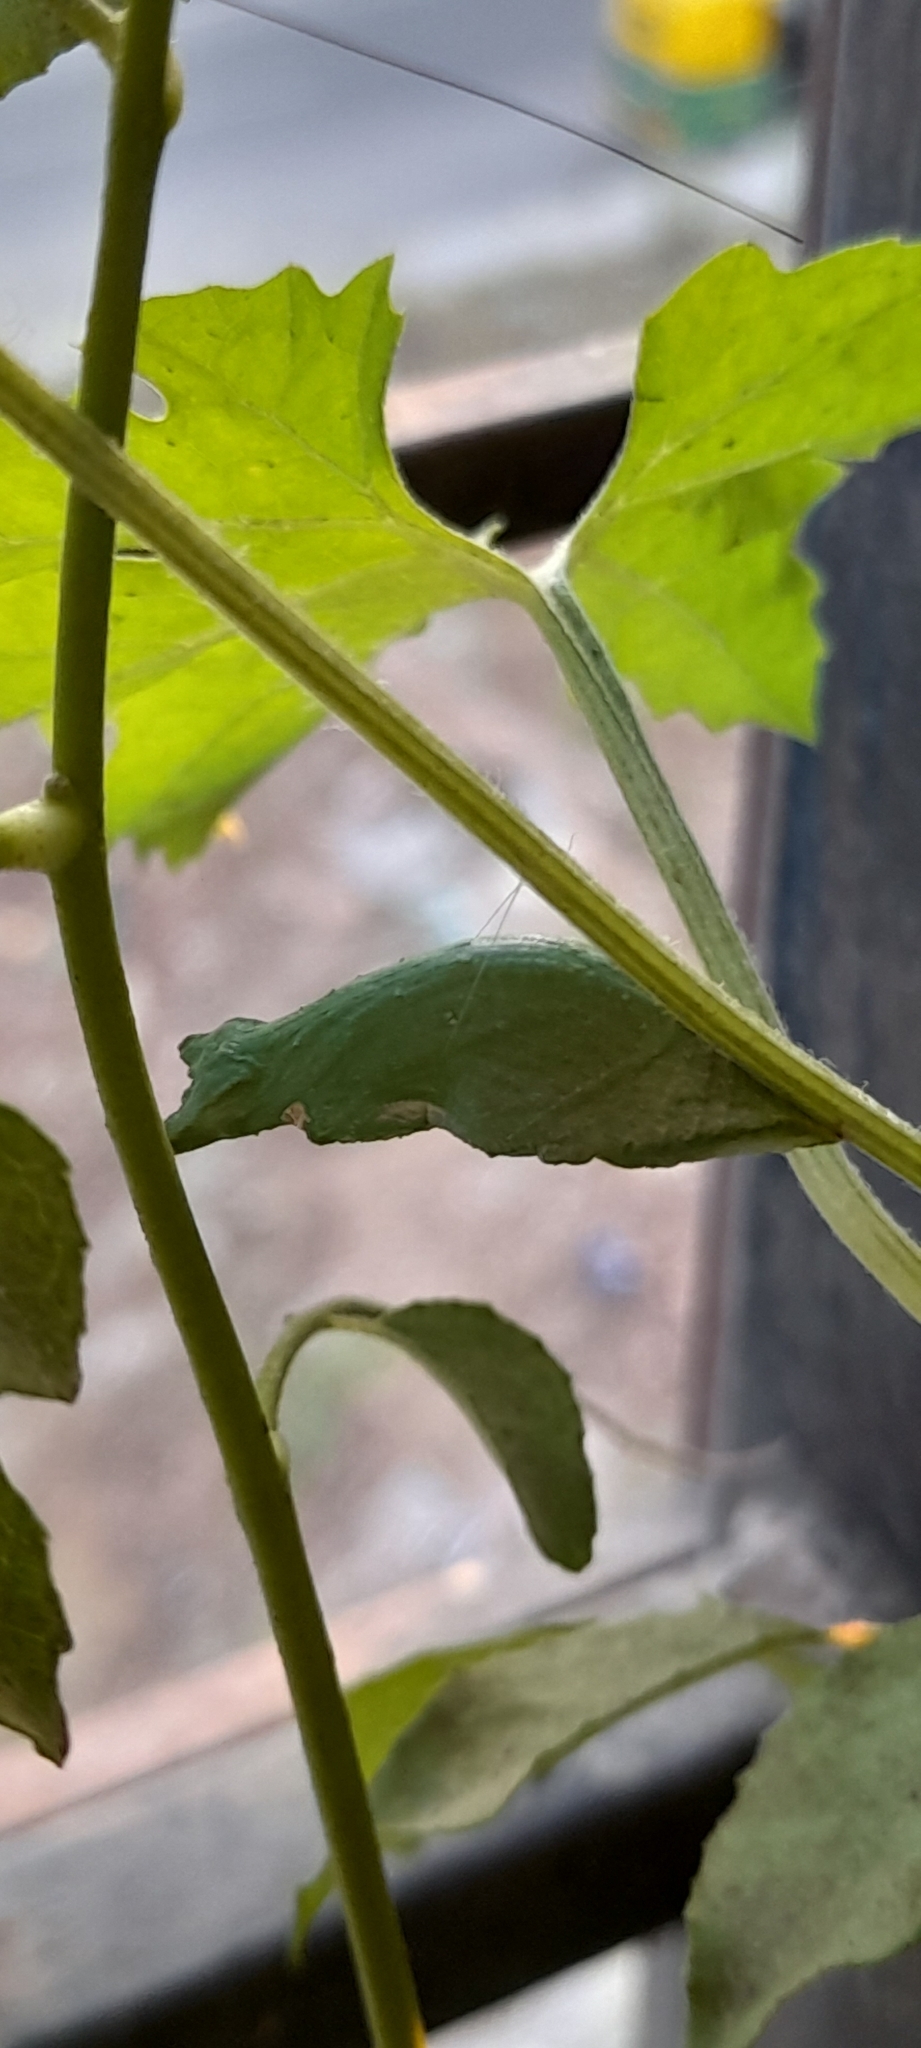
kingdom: Animalia
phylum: Arthropoda
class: Insecta
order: Lepidoptera
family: Papilionidae
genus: Papilio
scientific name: Papilio polytes
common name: Common mormon
